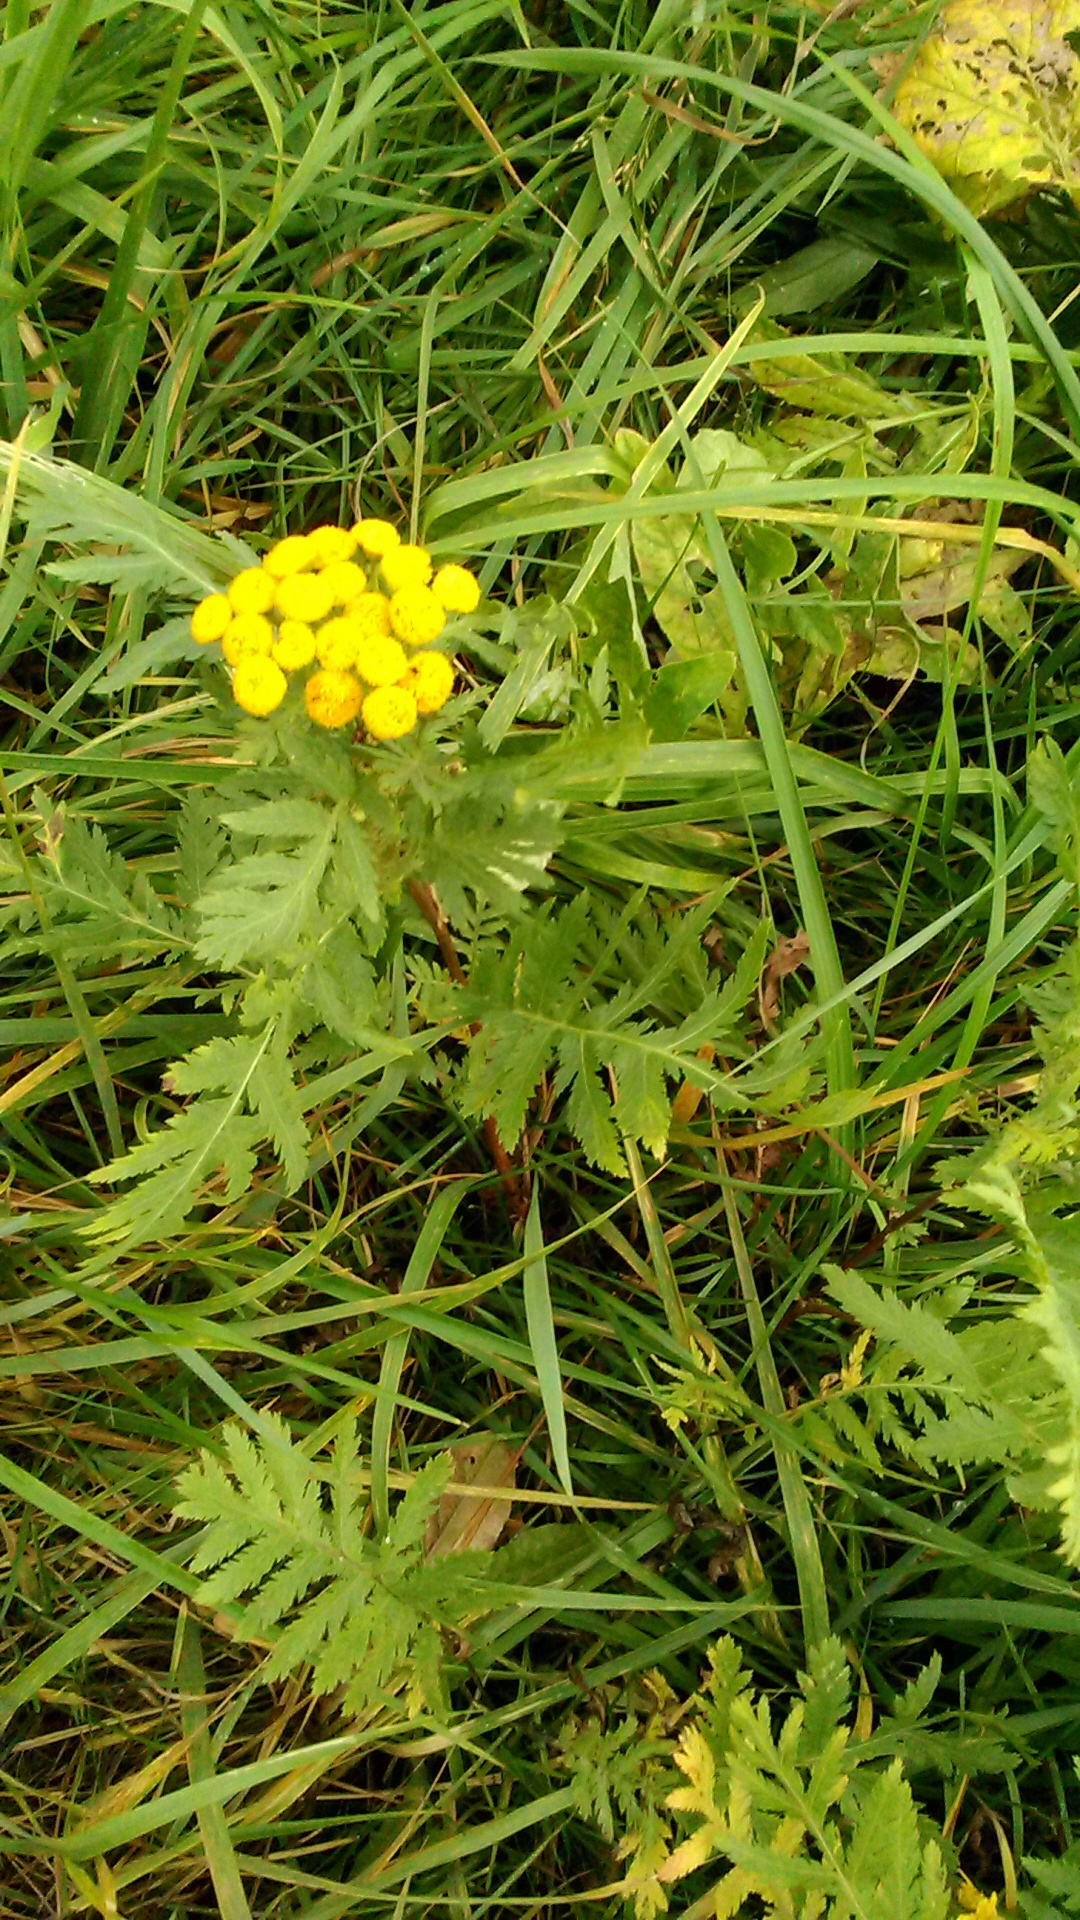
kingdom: Plantae
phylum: Tracheophyta
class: Magnoliopsida
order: Asterales
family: Asteraceae
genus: Tanacetum
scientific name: Tanacetum vulgare
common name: Common tansy
